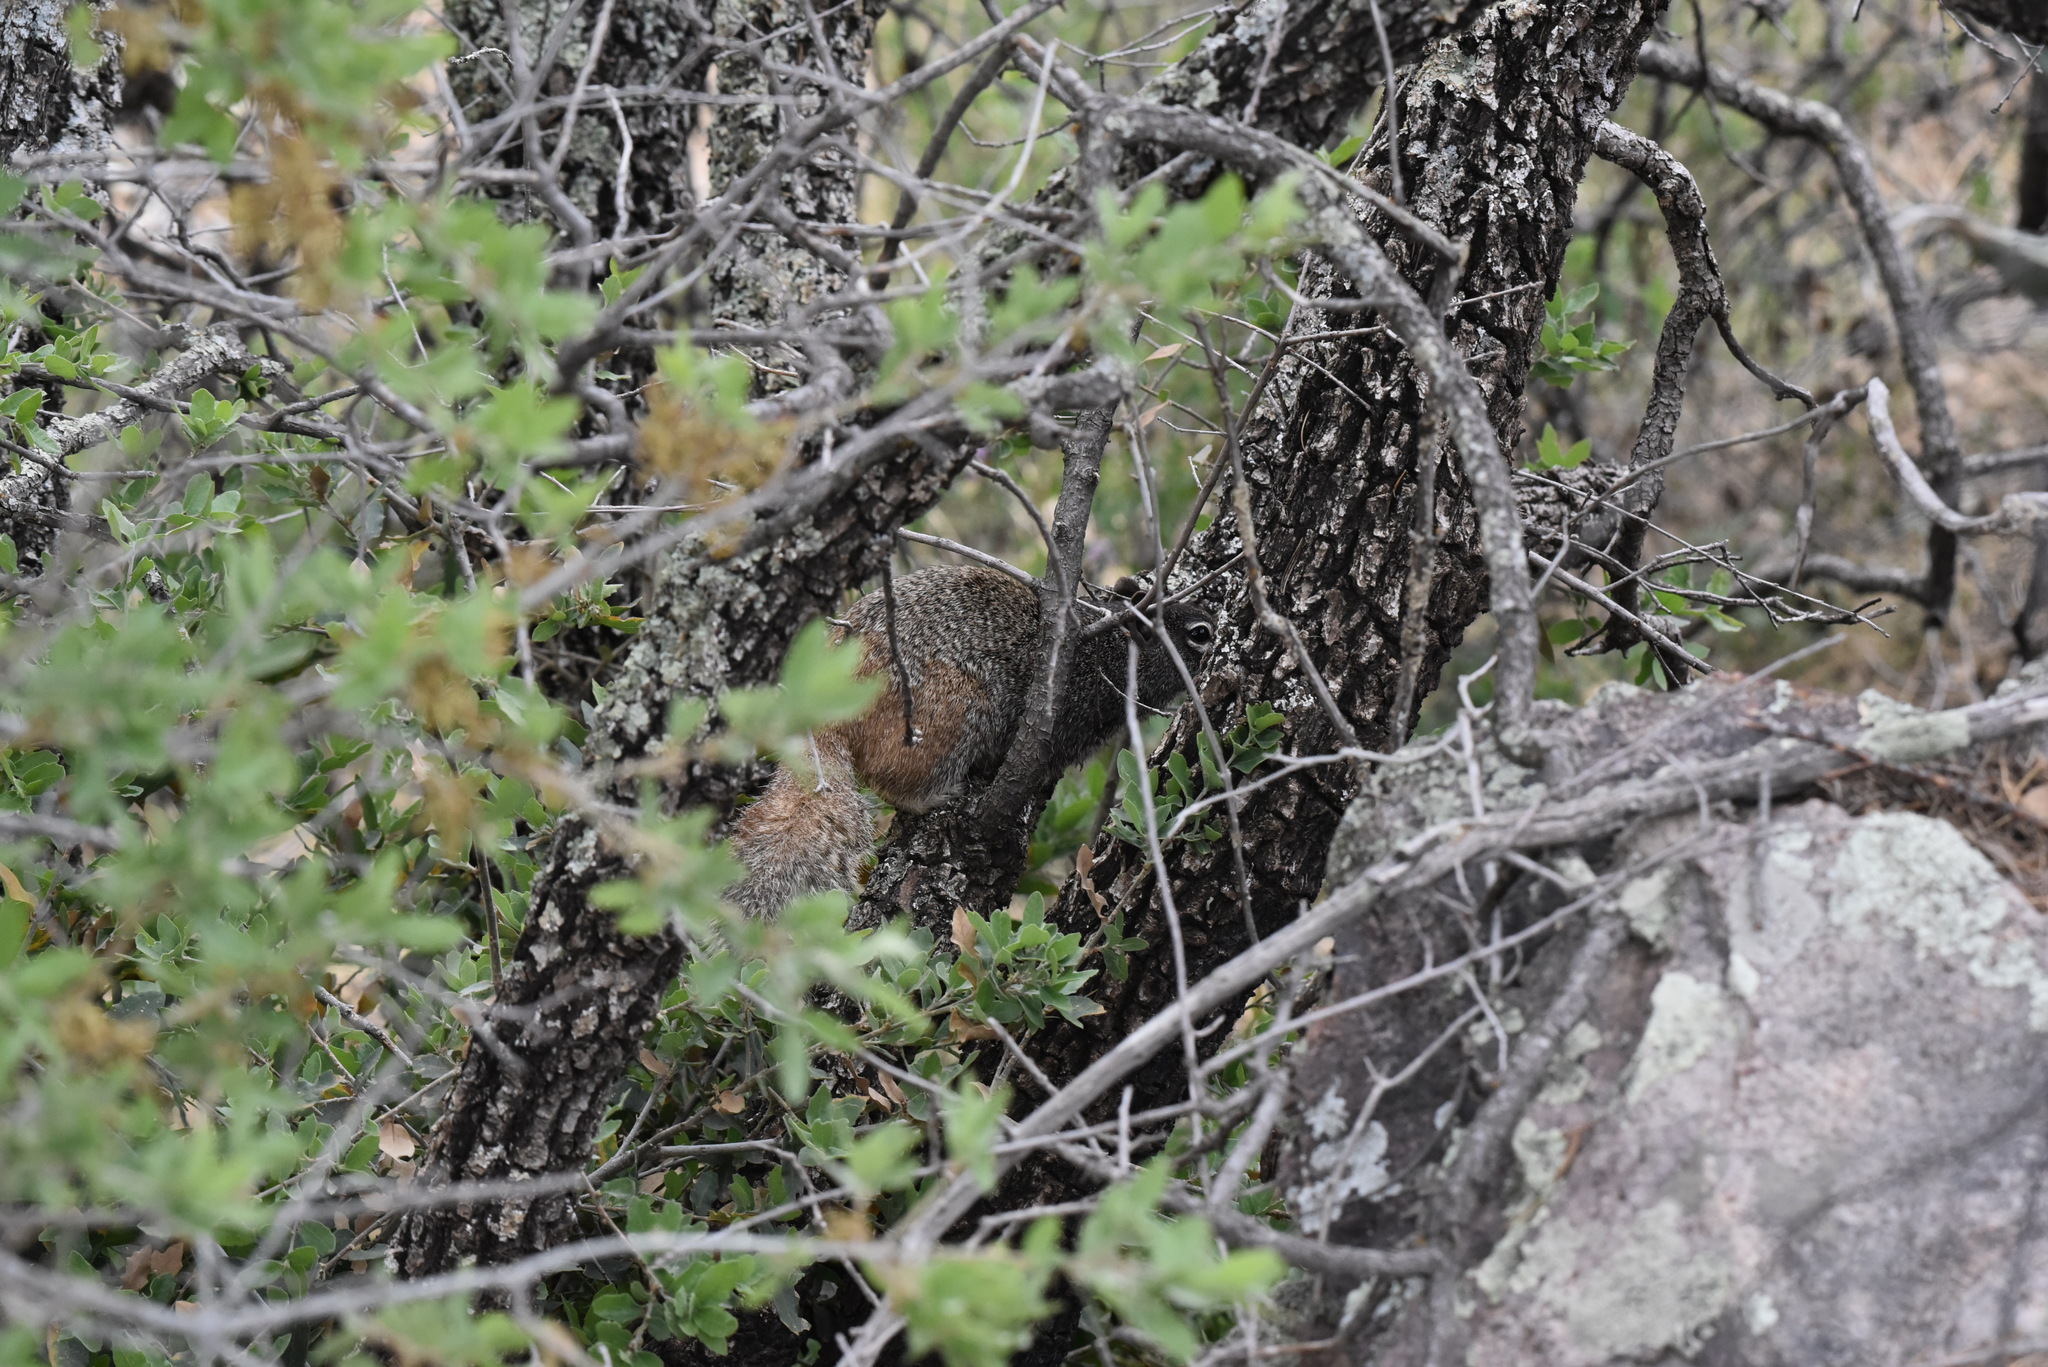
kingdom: Animalia
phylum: Chordata
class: Mammalia
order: Rodentia
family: Sciuridae
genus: Otospermophilus
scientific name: Otospermophilus variegatus
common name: Rock squirrel
